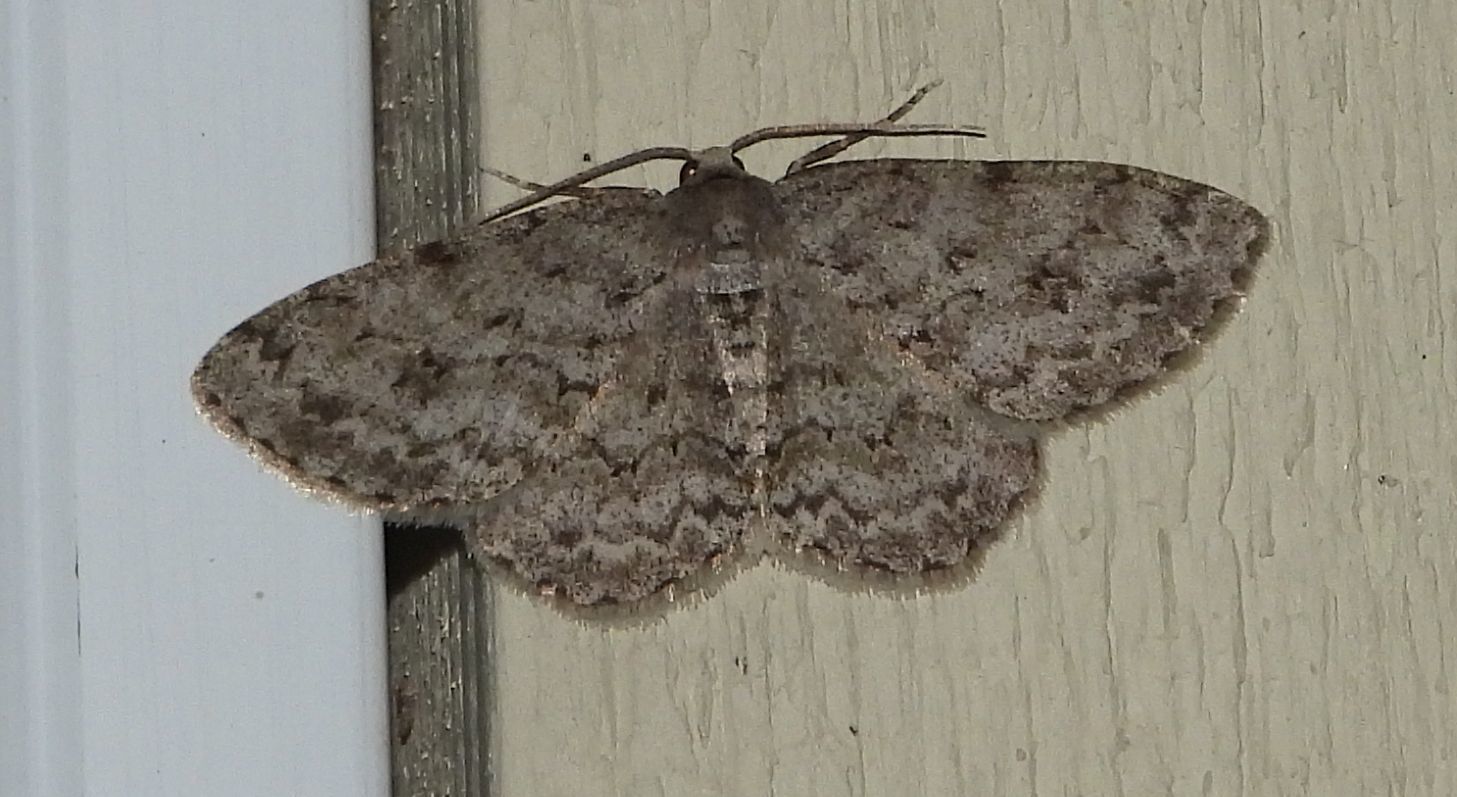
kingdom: Animalia
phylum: Arthropoda
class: Insecta
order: Lepidoptera
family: Geometridae
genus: Ectropis
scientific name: Ectropis crepuscularia
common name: Engrailed
